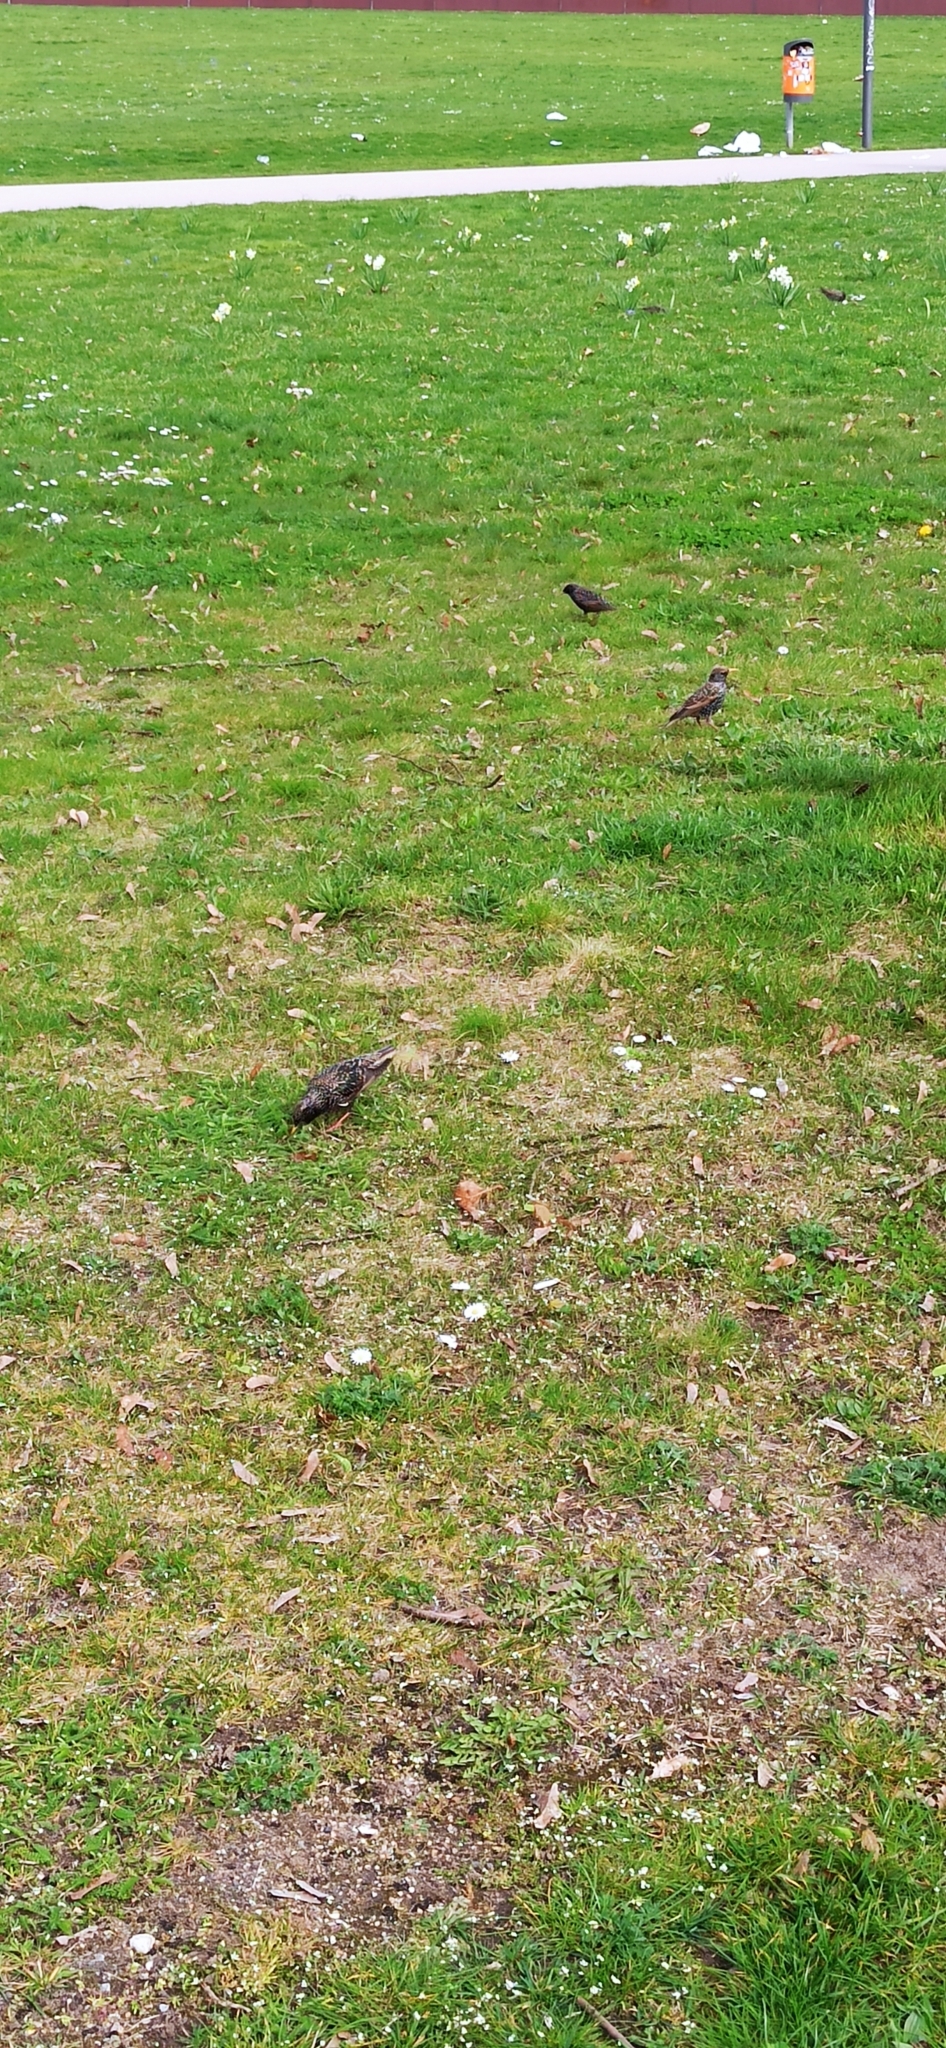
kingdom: Animalia
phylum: Chordata
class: Aves
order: Passeriformes
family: Sturnidae
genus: Sturnus
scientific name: Sturnus vulgaris
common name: Common starling
